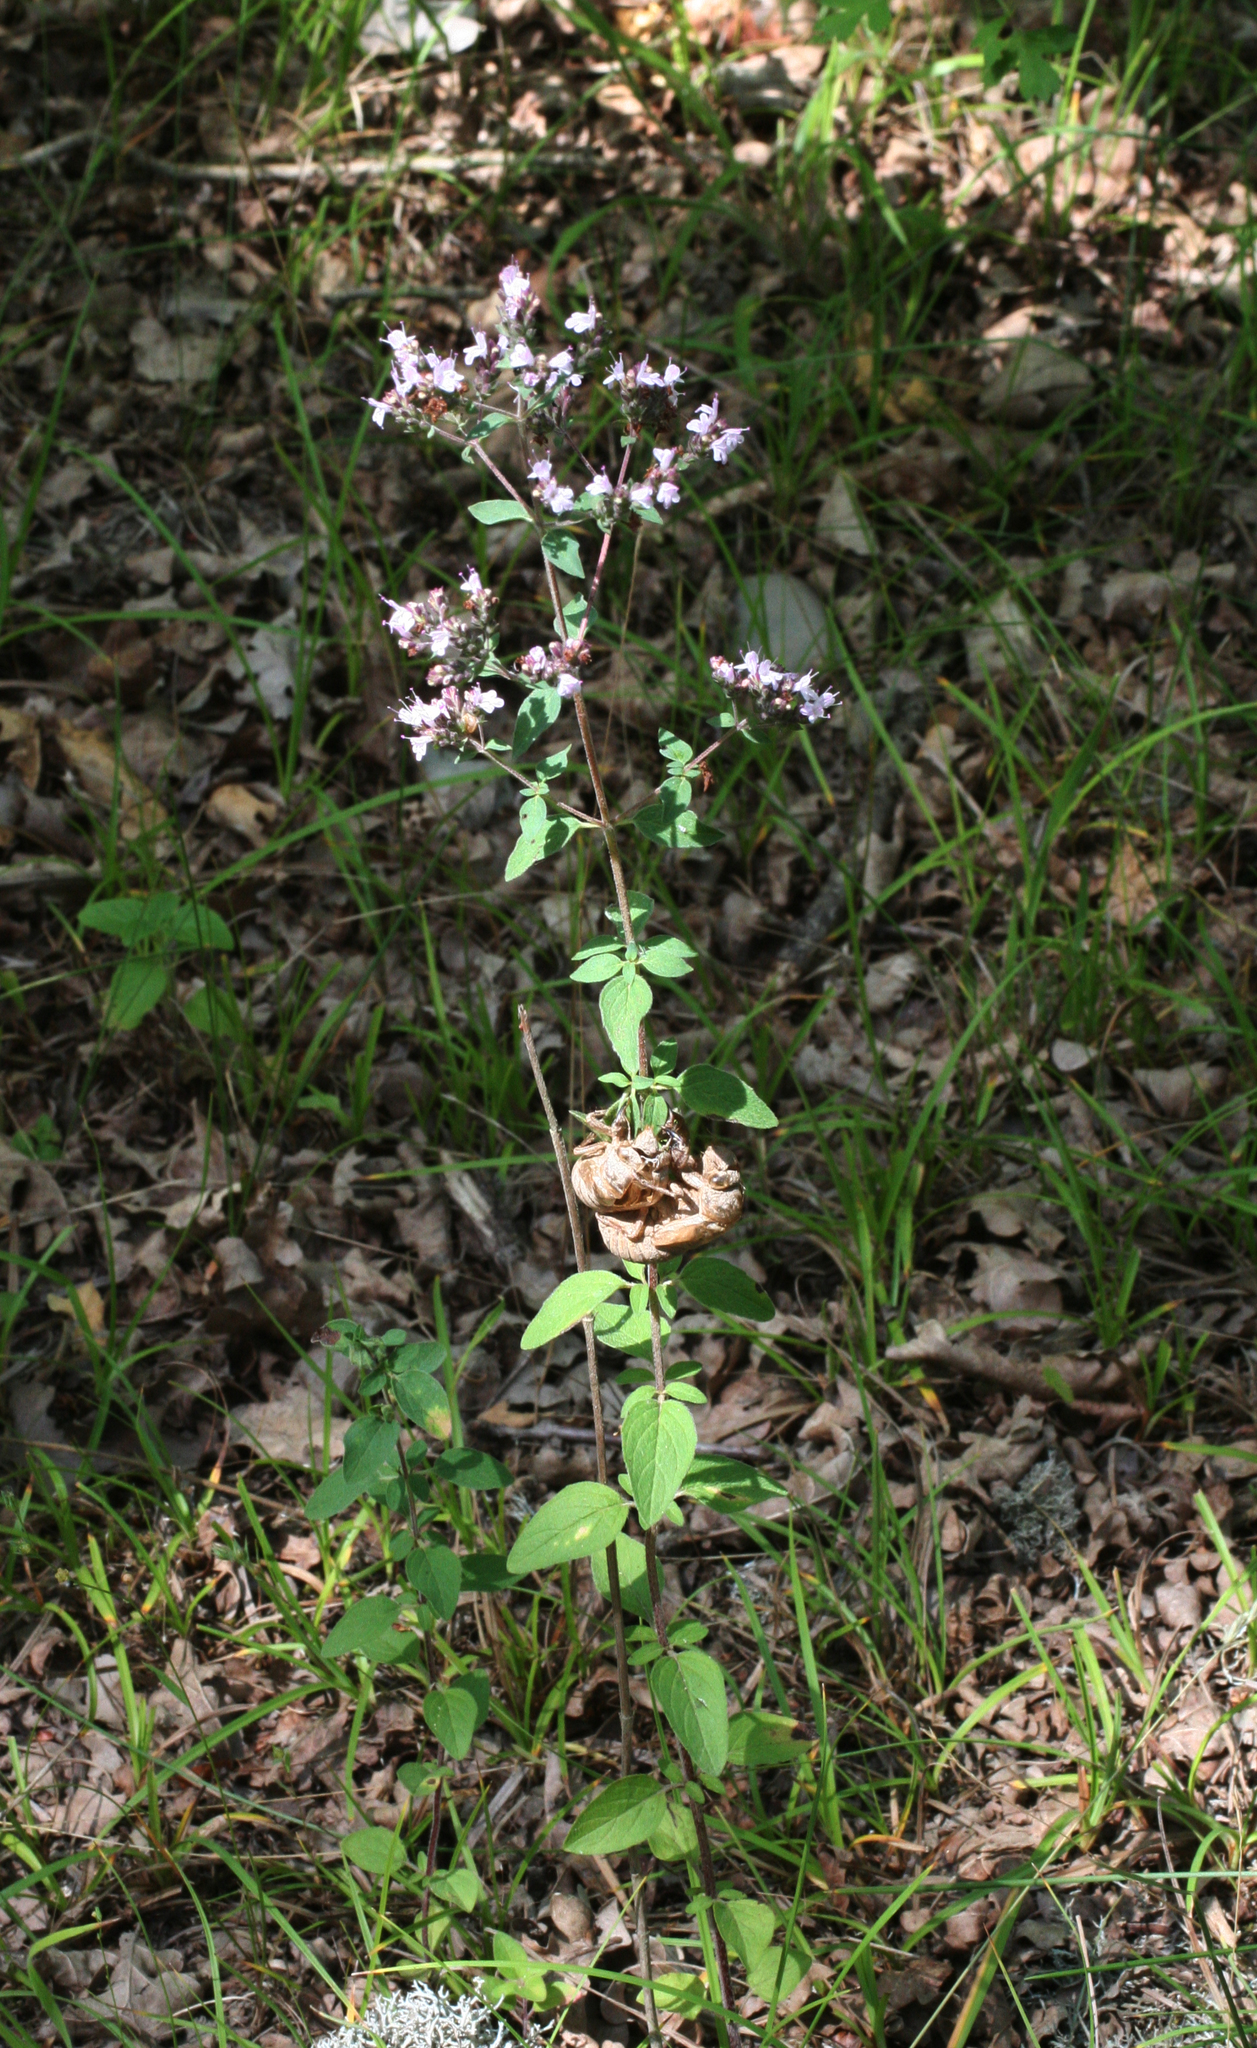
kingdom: Animalia
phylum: Arthropoda
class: Insecta
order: Hemiptera
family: Cicadidae
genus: Lyristes
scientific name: Lyristes plebejus
